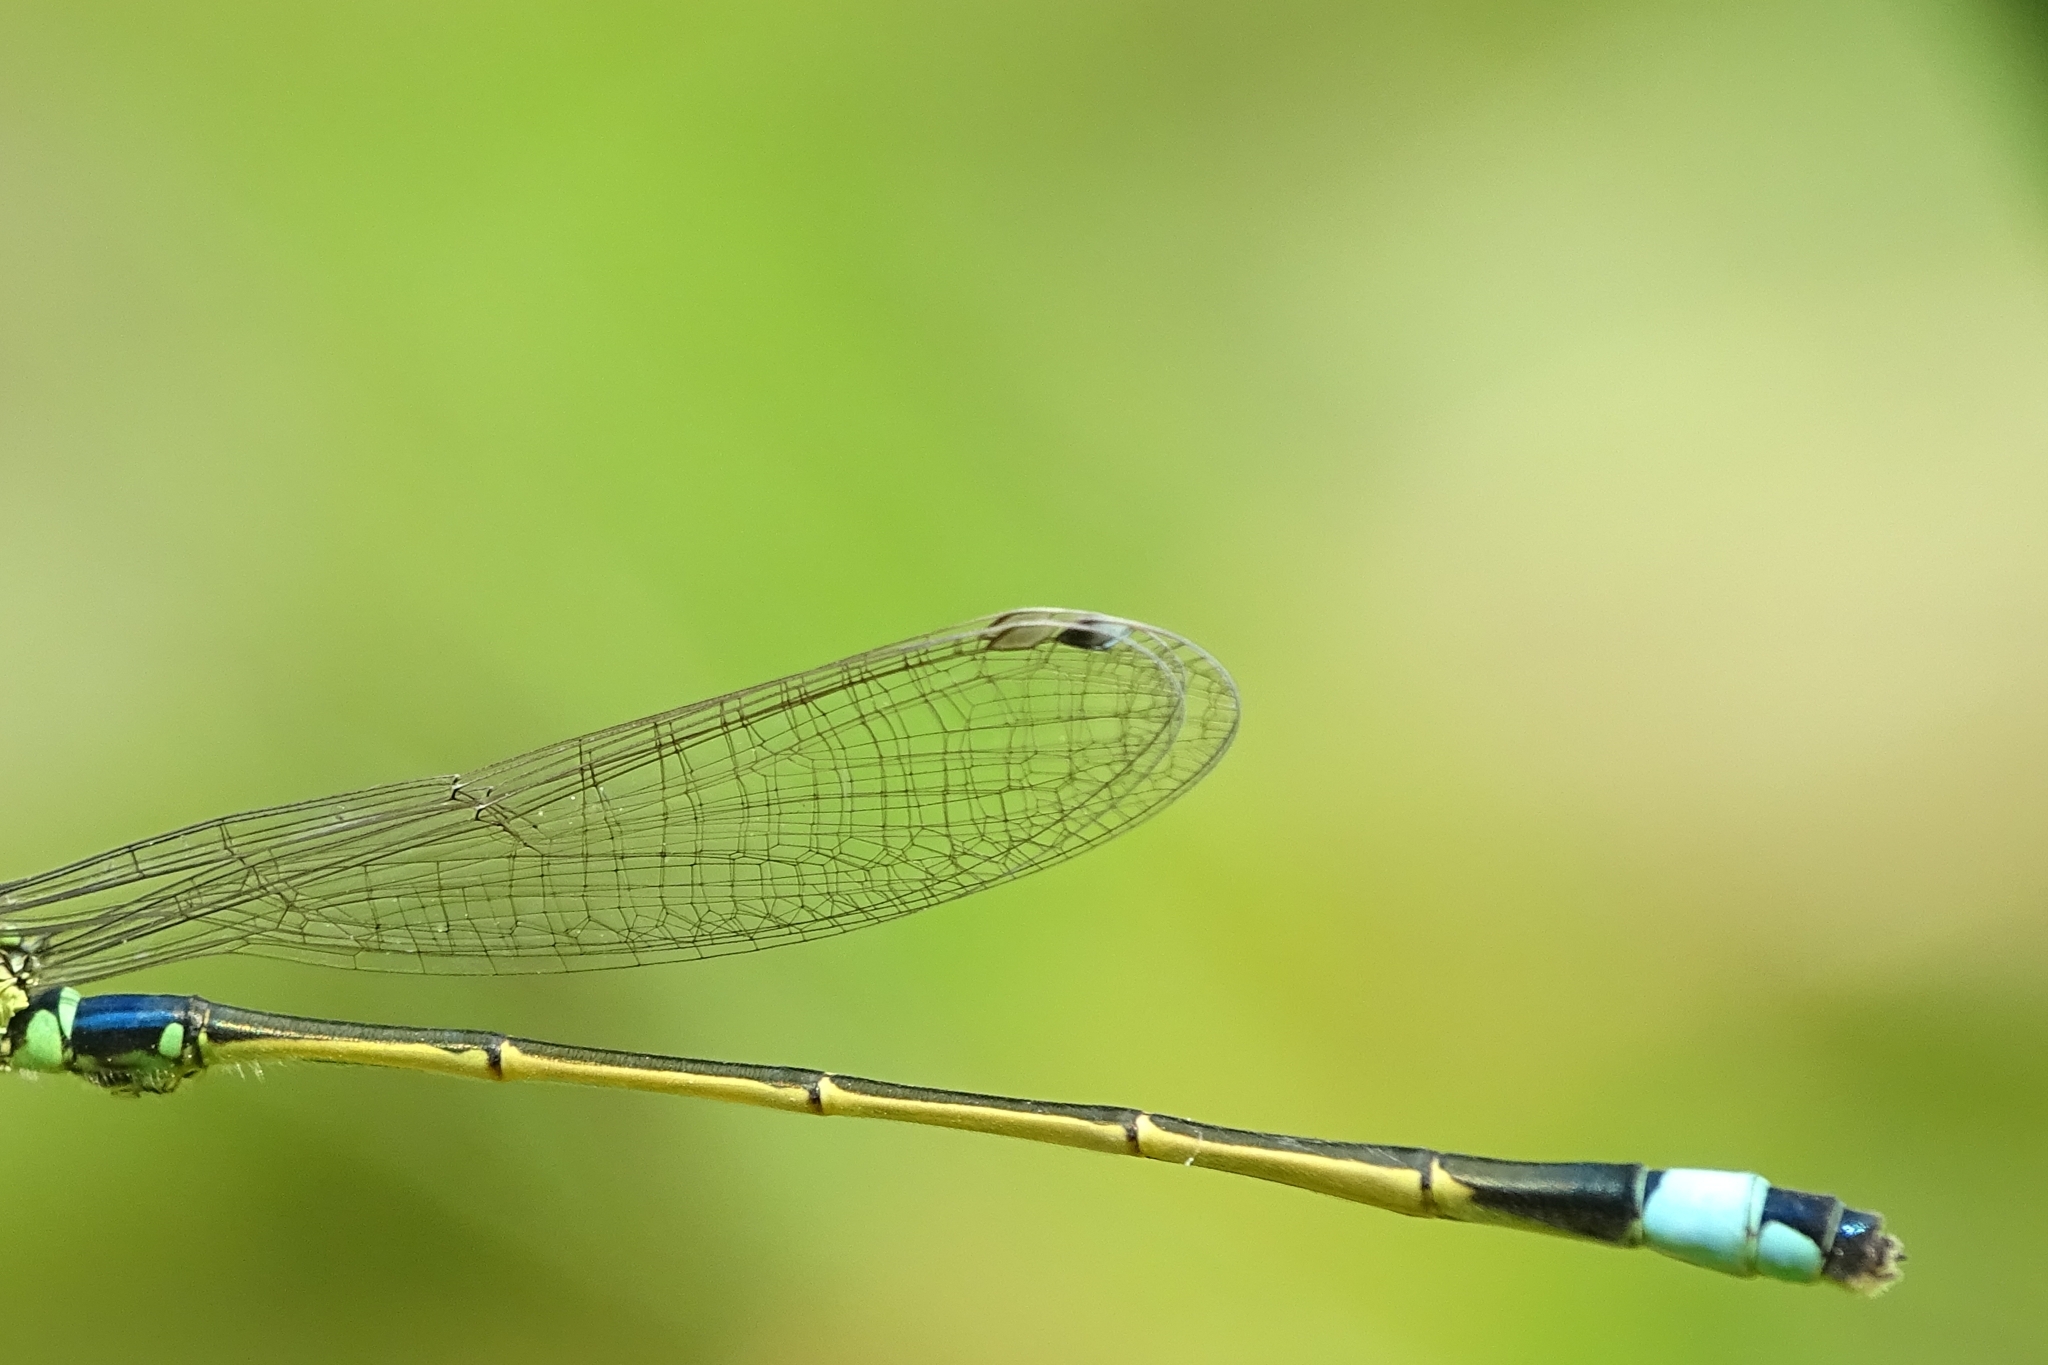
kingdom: Animalia
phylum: Arthropoda
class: Insecta
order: Odonata
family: Coenagrionidae
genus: Ischnura
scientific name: Ischnura senegalensis
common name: Tropical bluetail
